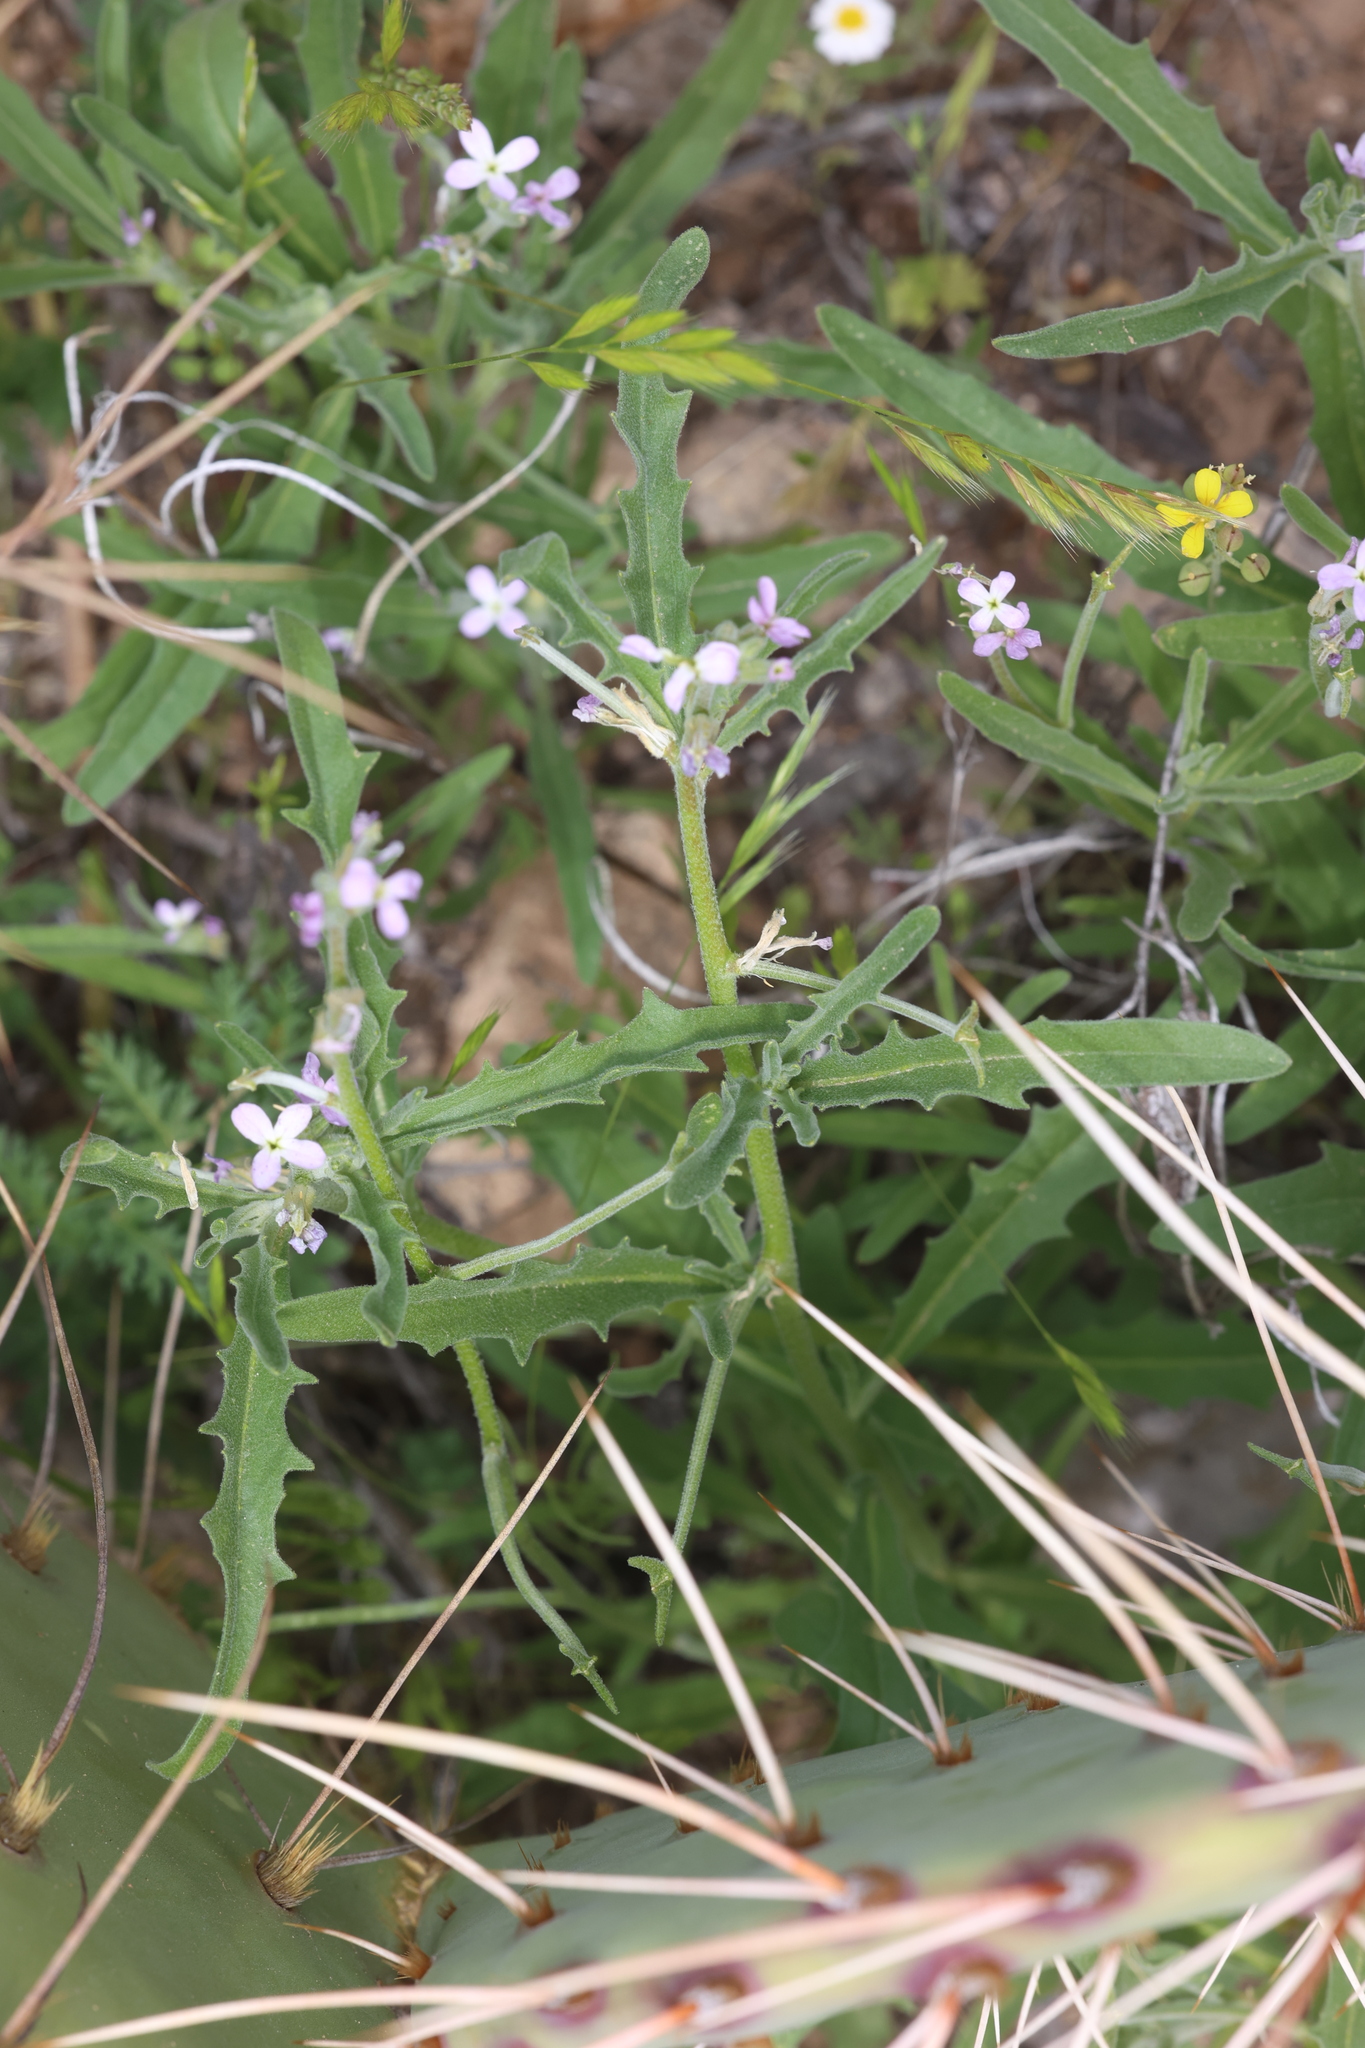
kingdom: Plantae
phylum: Tracheophyta
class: Magnoliopsida
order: Brassicales
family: Brassicaceae
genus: Matthiola
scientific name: Matthiola parviflora
